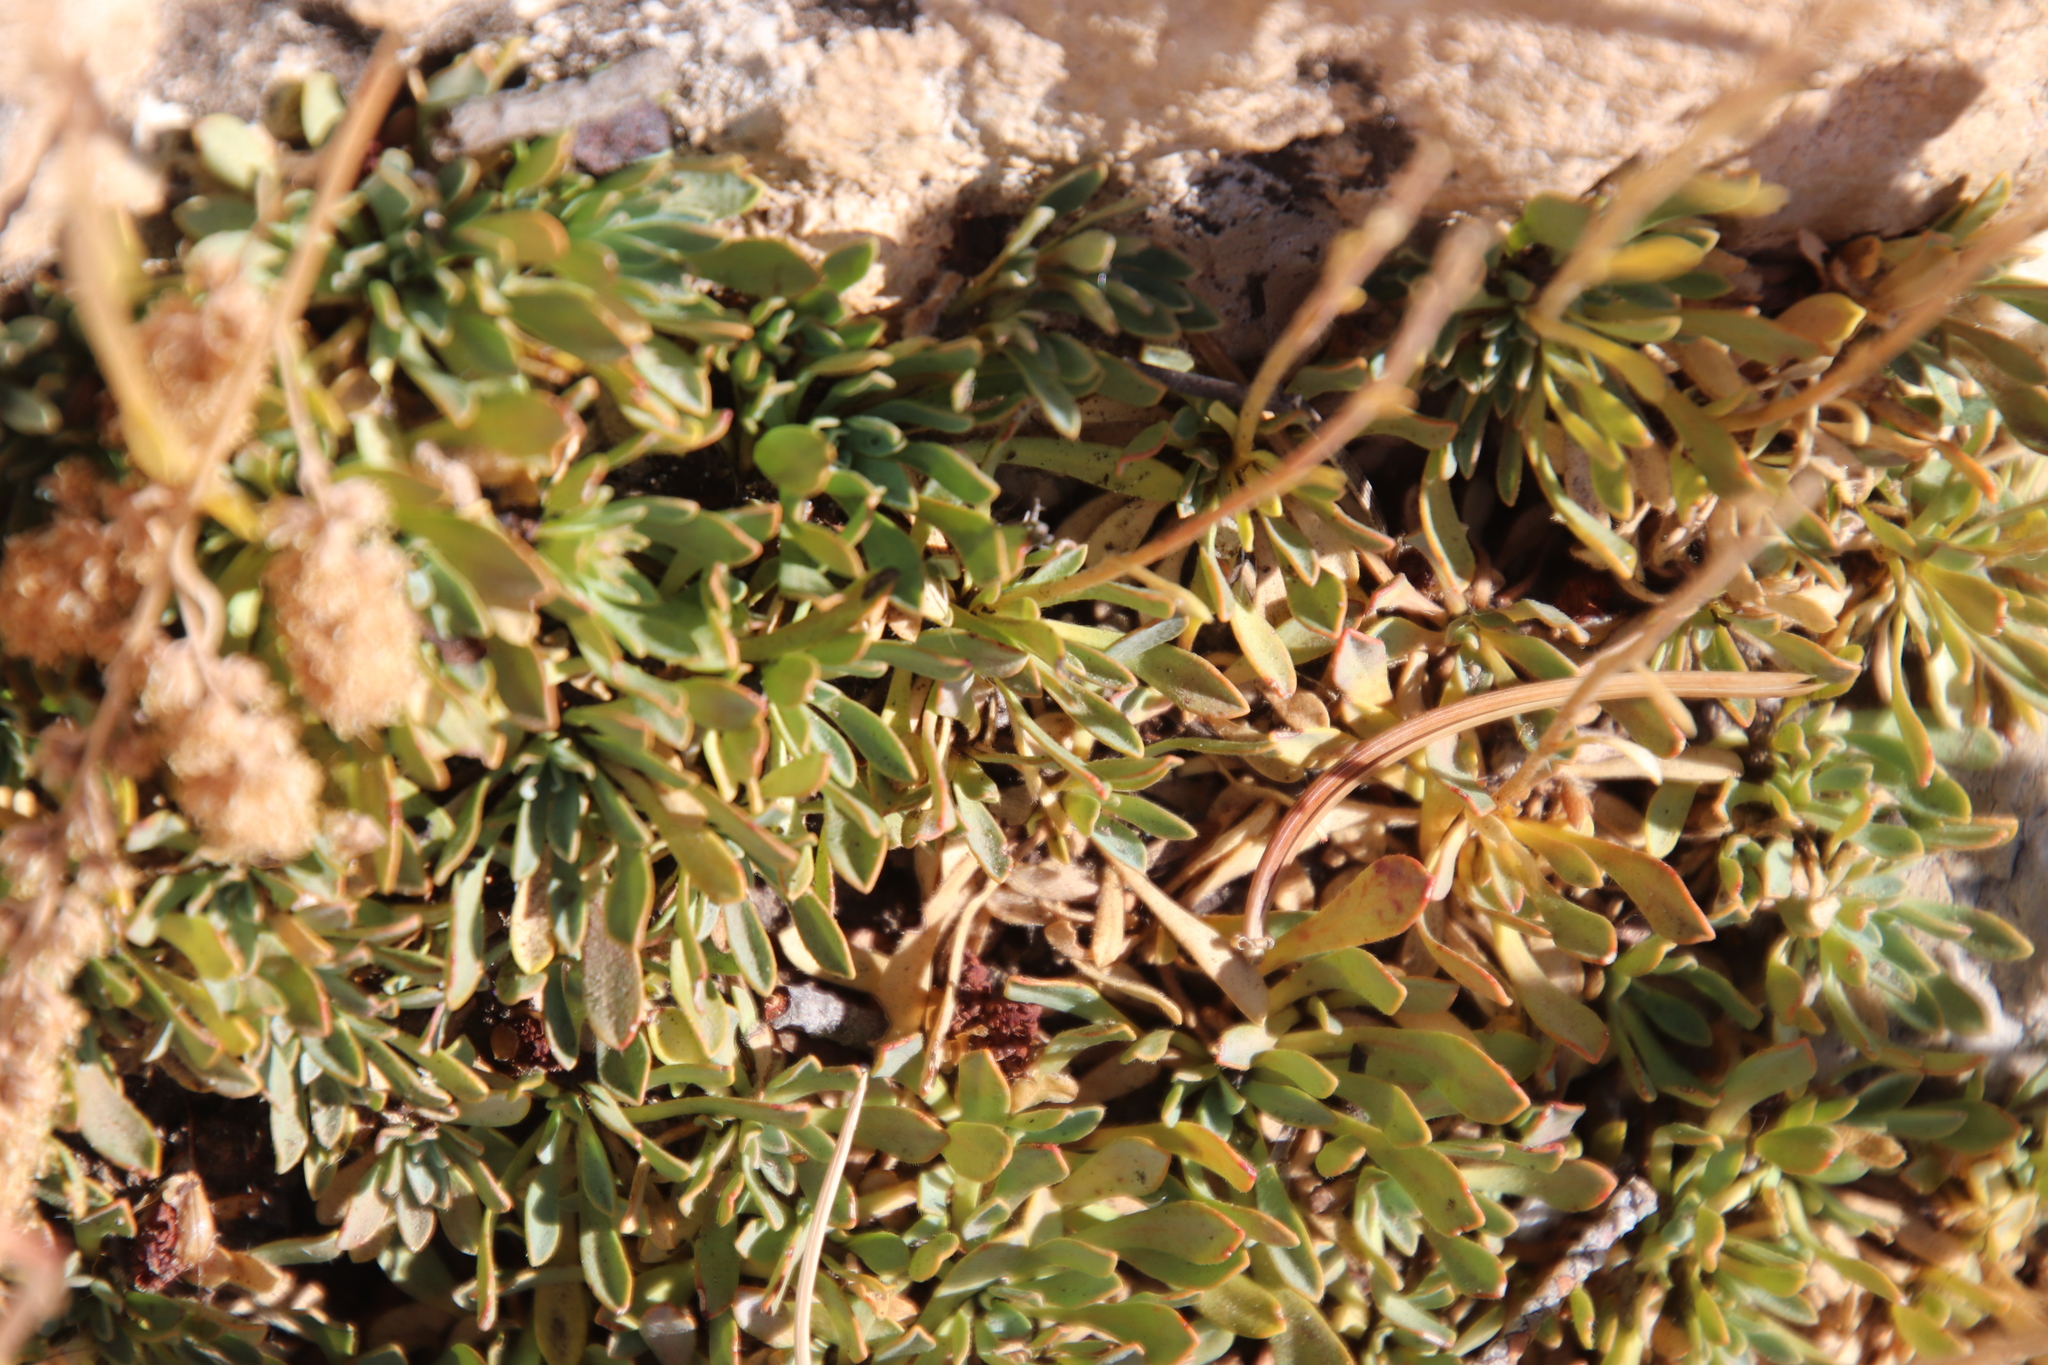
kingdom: Plantae
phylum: Tracheophyta
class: Magnoliopsida
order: Rosales
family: Rosaceae
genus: Petrophytum
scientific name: Petrophytum caespitosum
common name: Mat rockspirea
